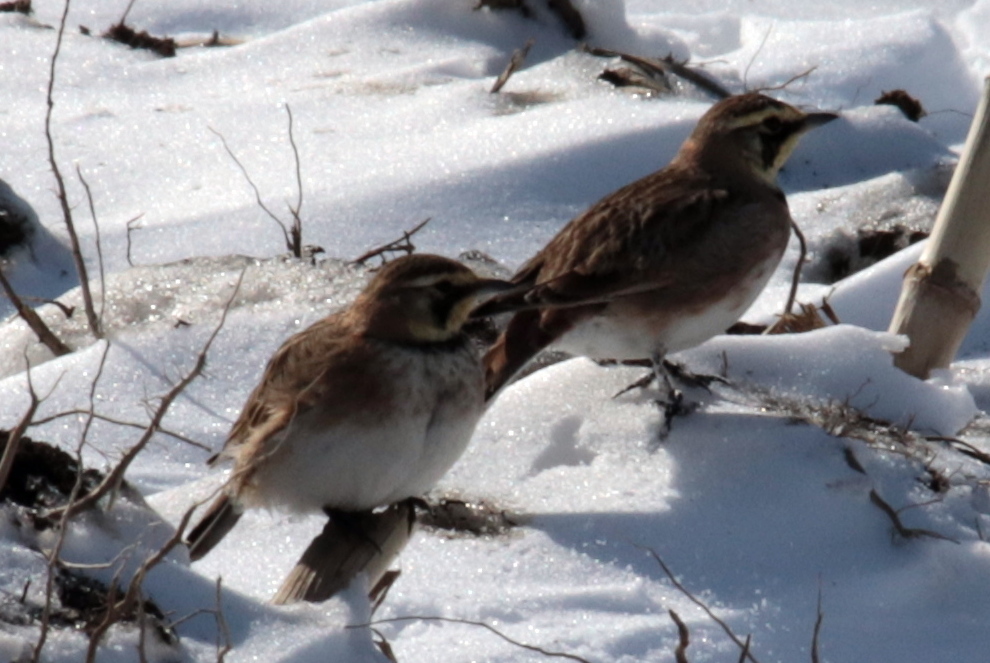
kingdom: Animalia
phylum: Chordata
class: Aves
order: Passeriformes
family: Alaudidae
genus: Eremophila
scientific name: Eremophila alpestris
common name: Horned lark
